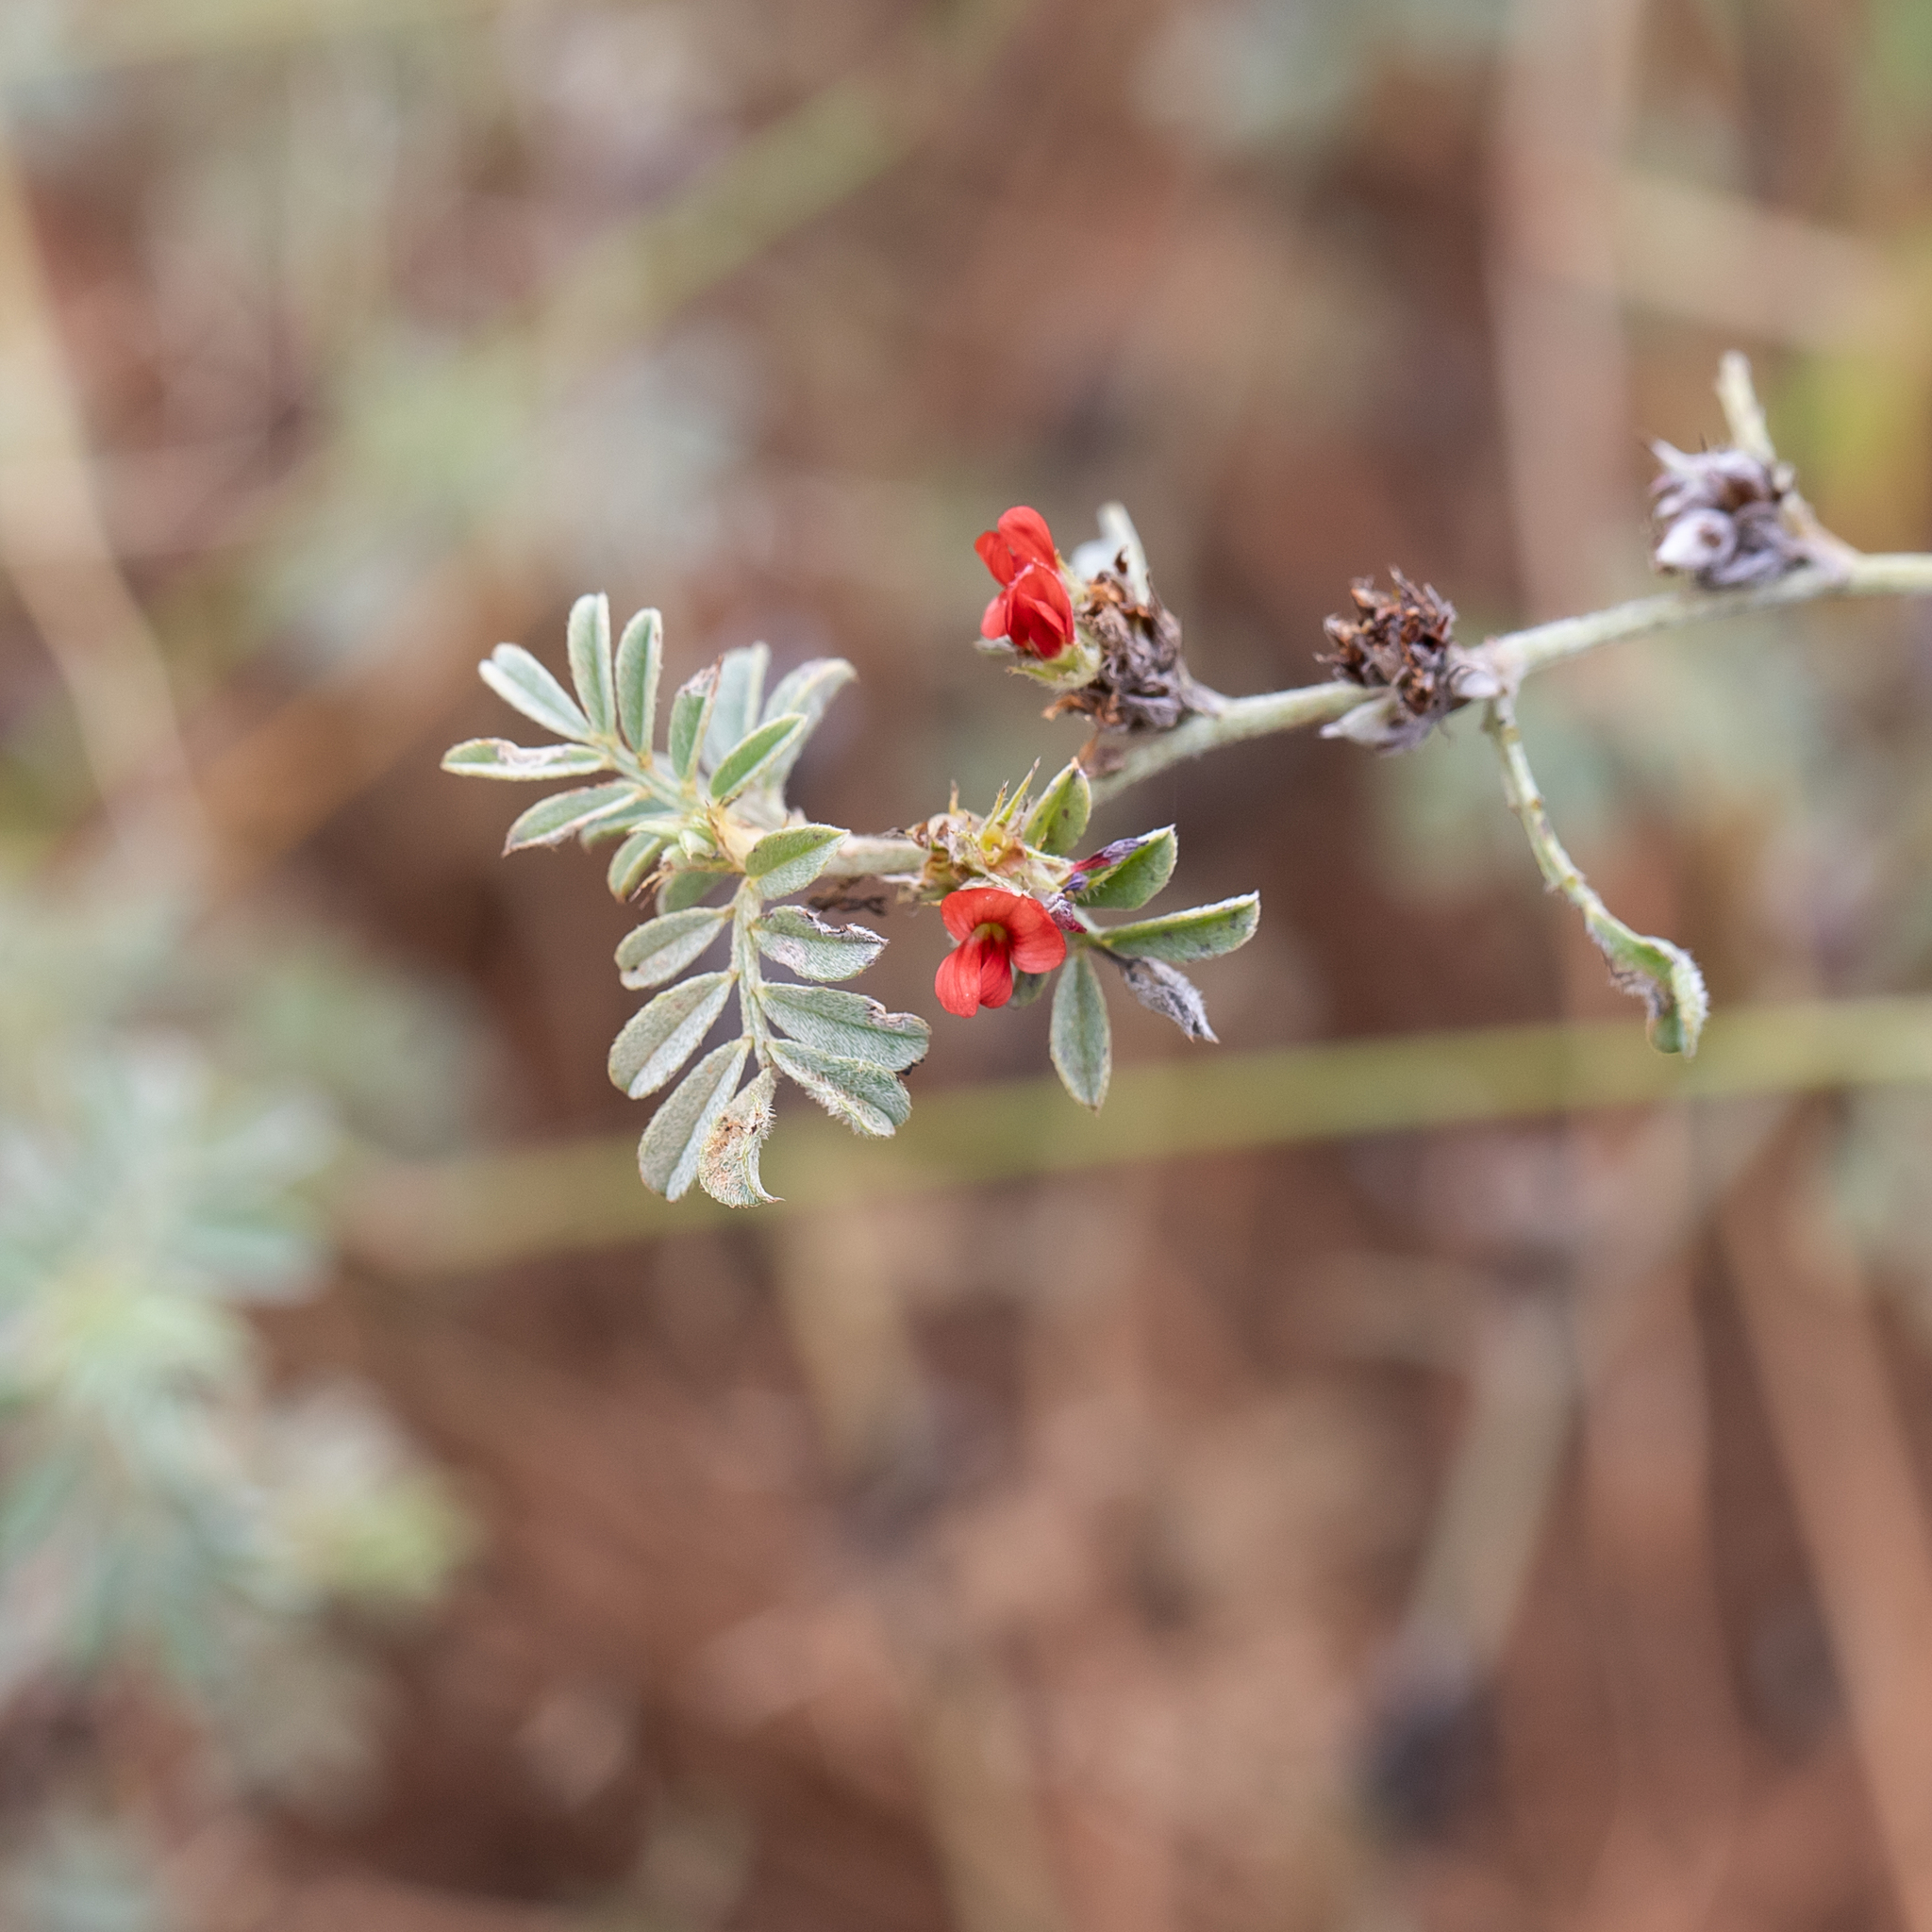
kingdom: Plantae
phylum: Tracheophyta
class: Magnoliopsida
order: Fabales
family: Fabaceae
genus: Indigofera
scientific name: Indigofera linnaei
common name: Nine-leaf indigo
